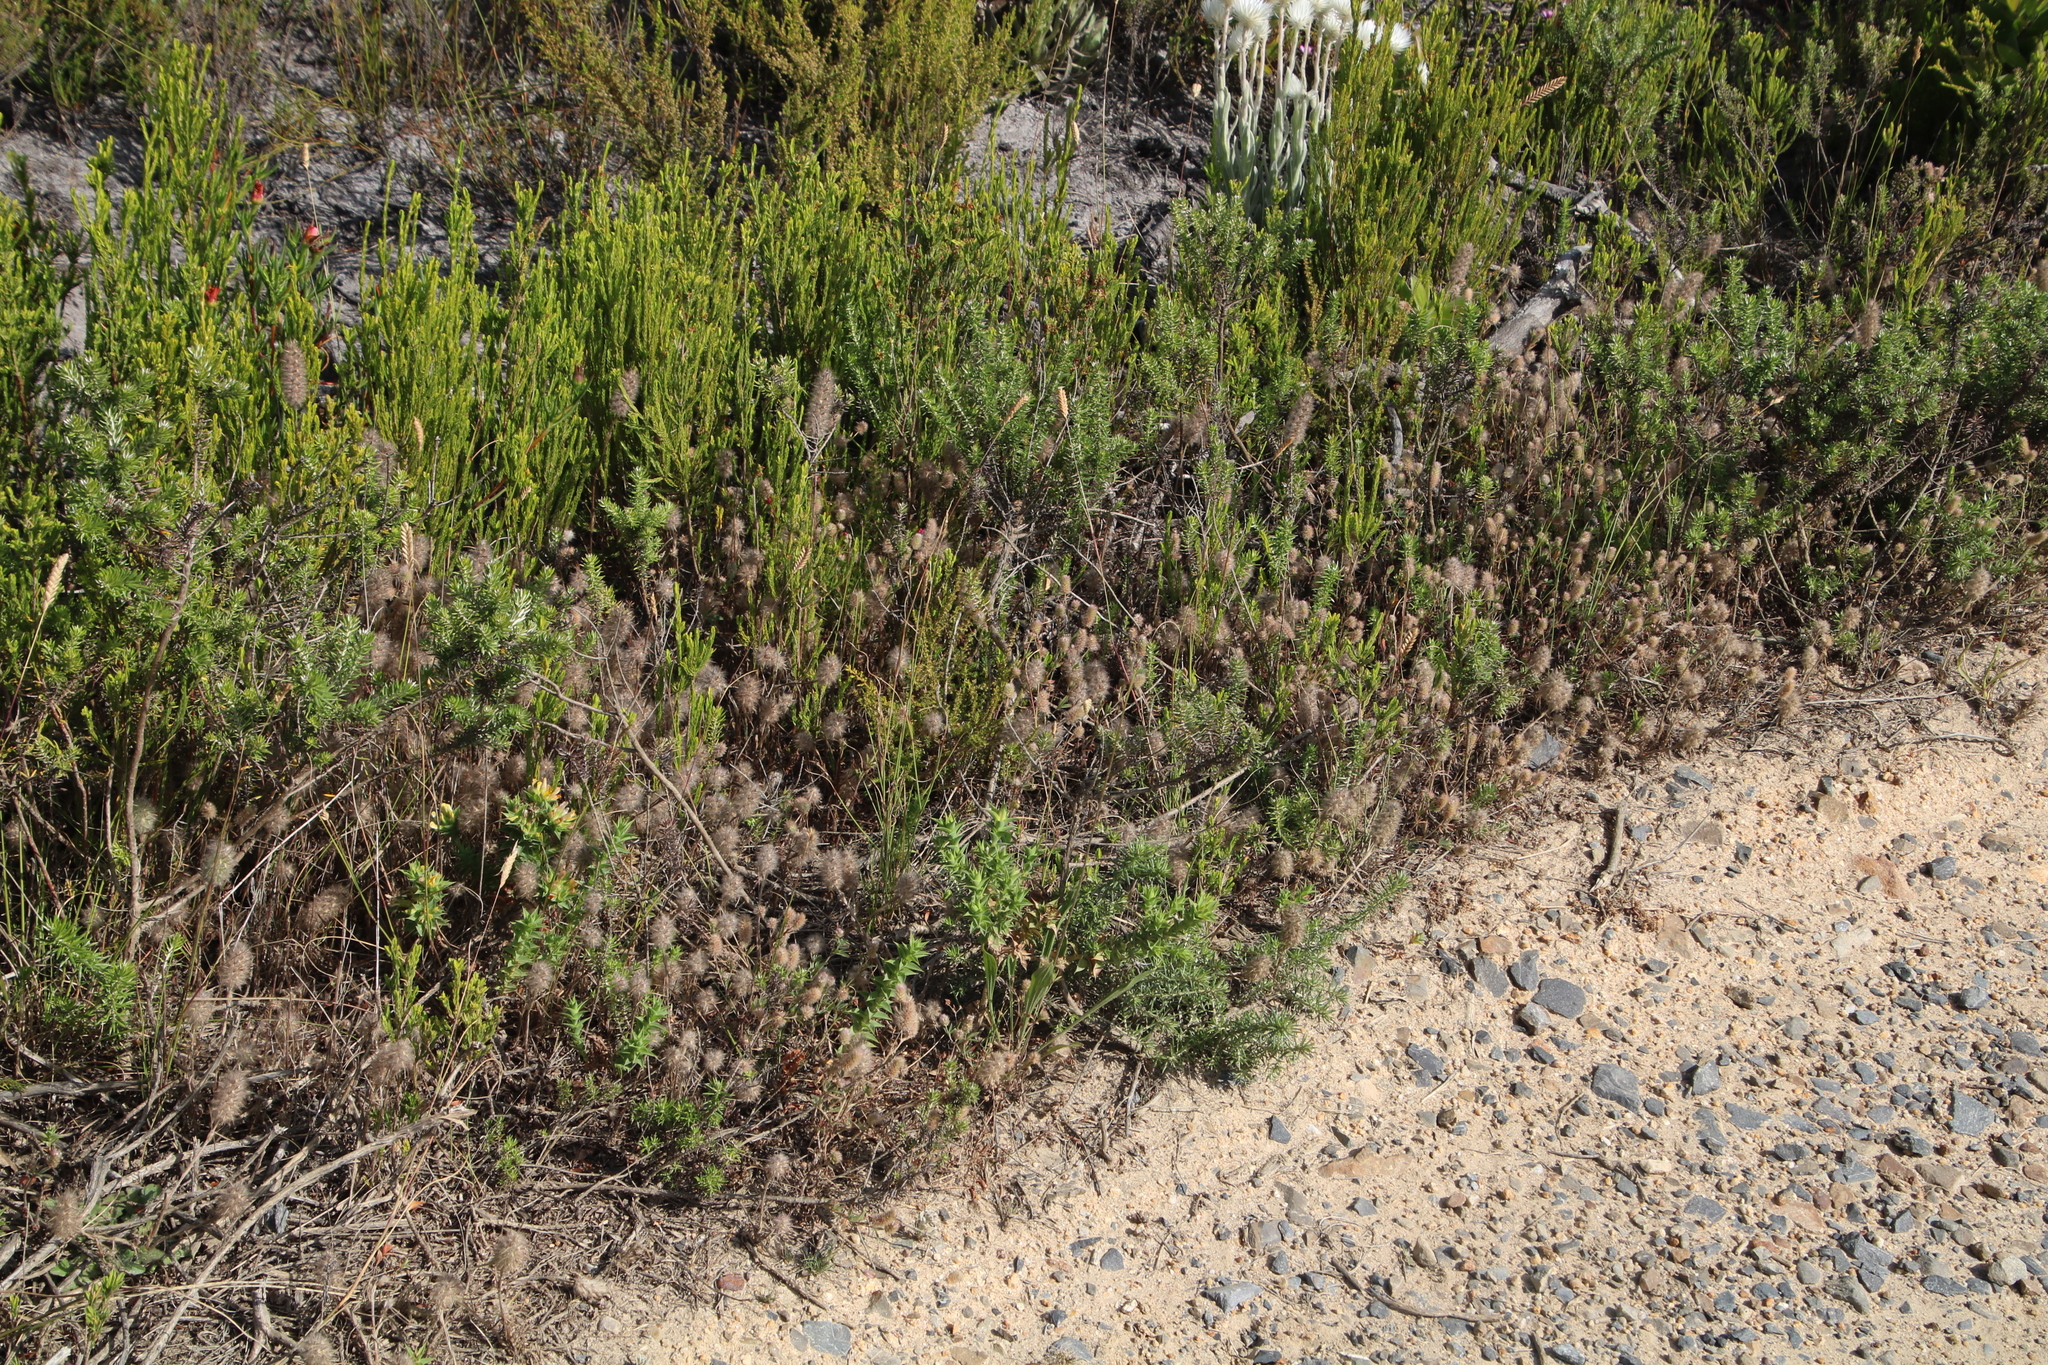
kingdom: Plantae
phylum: Tracheophyta
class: Magnoliopsida
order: Fabales
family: Fabaceae
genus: Trifolium
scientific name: Trifolium angustifolium
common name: Narrow clover
